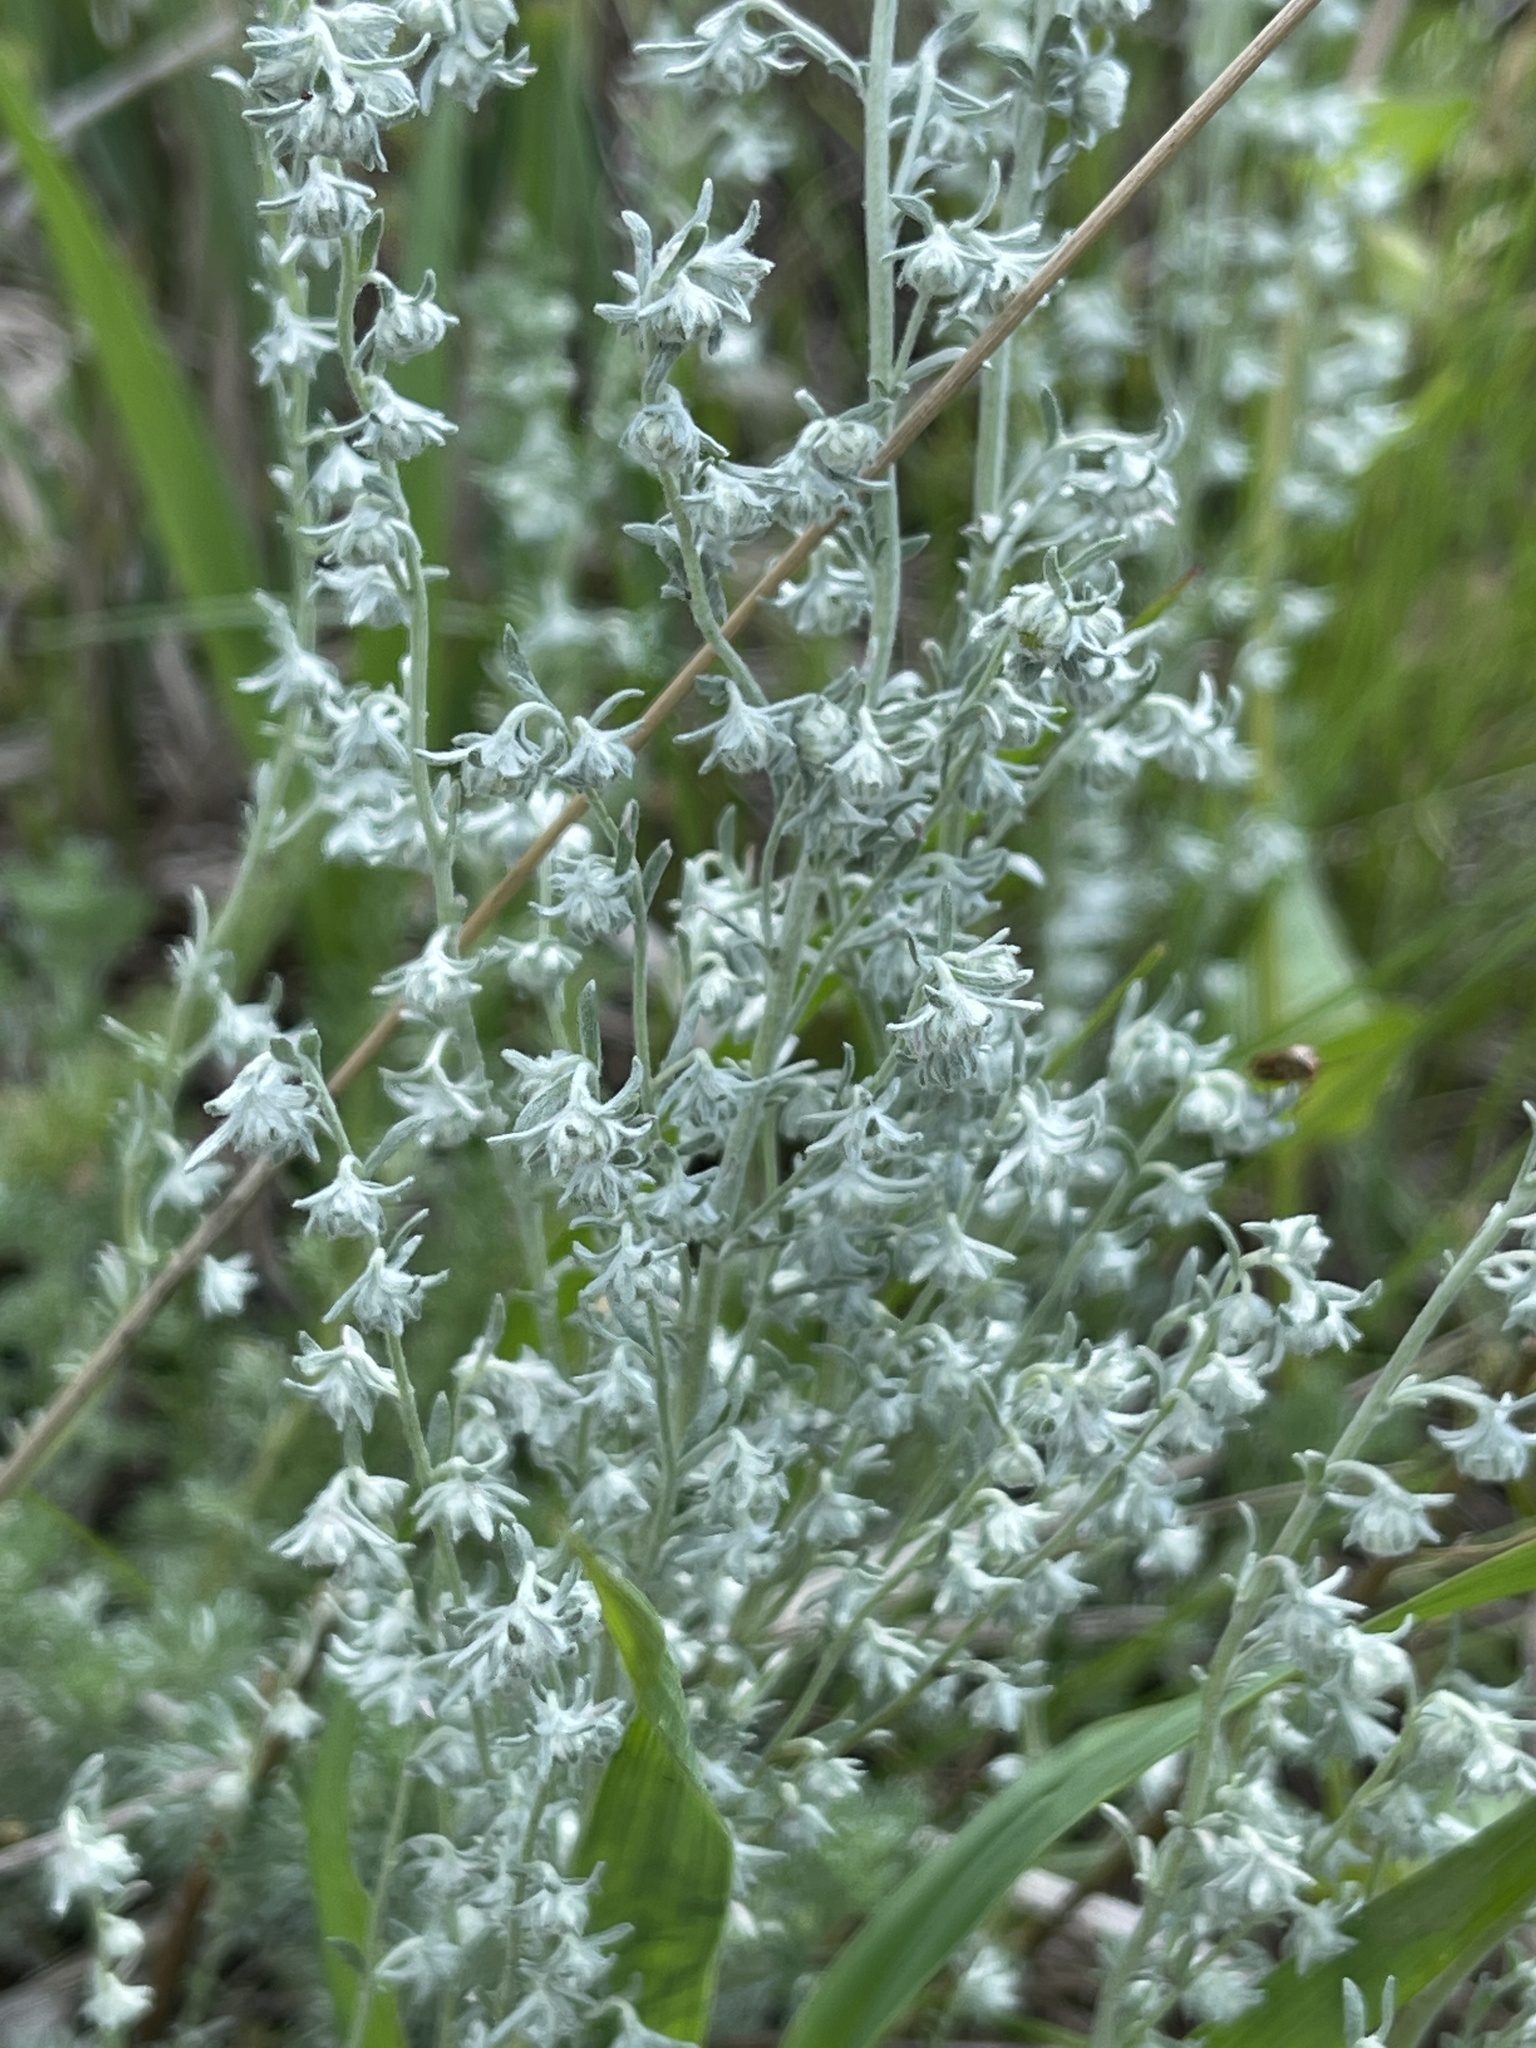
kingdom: Plantae
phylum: Tracheophyta
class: Magnoliopsida
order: Asterales
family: Asteraceae
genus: Artemisia
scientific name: Artemisia frigida
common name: Prairie sagewort
